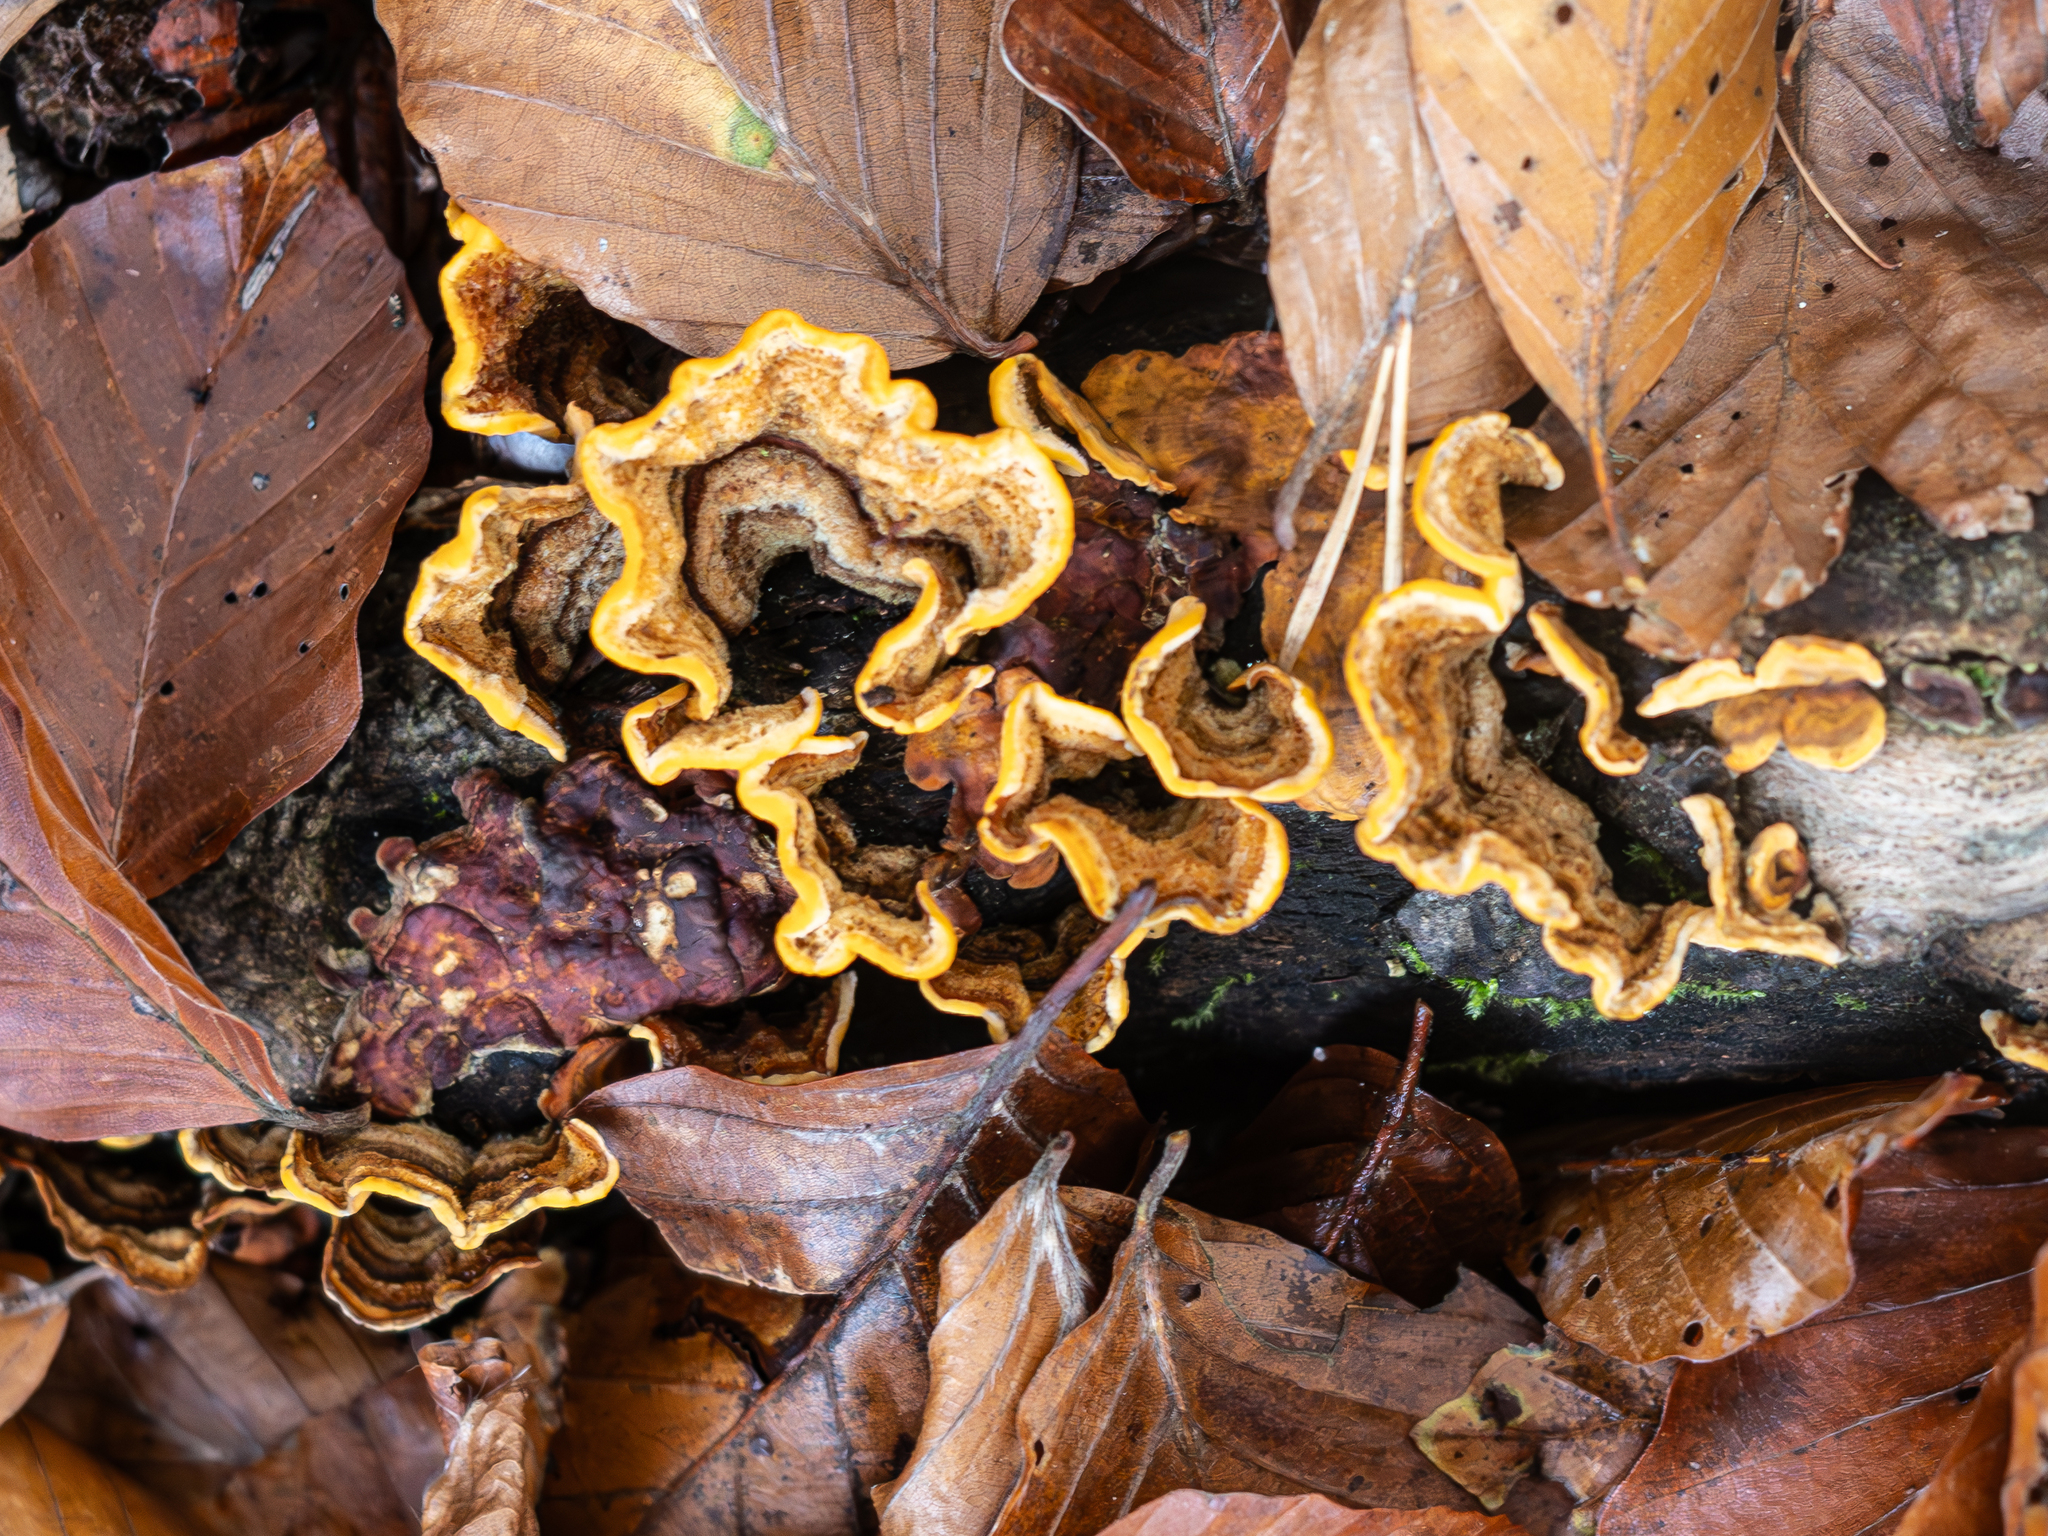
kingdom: Fungi
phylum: Basidiomycota
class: Agaricomycetes
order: Russulales
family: Stereaceae
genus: Stereum
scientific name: Stereum hirsutum
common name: Hairy curtain crust
